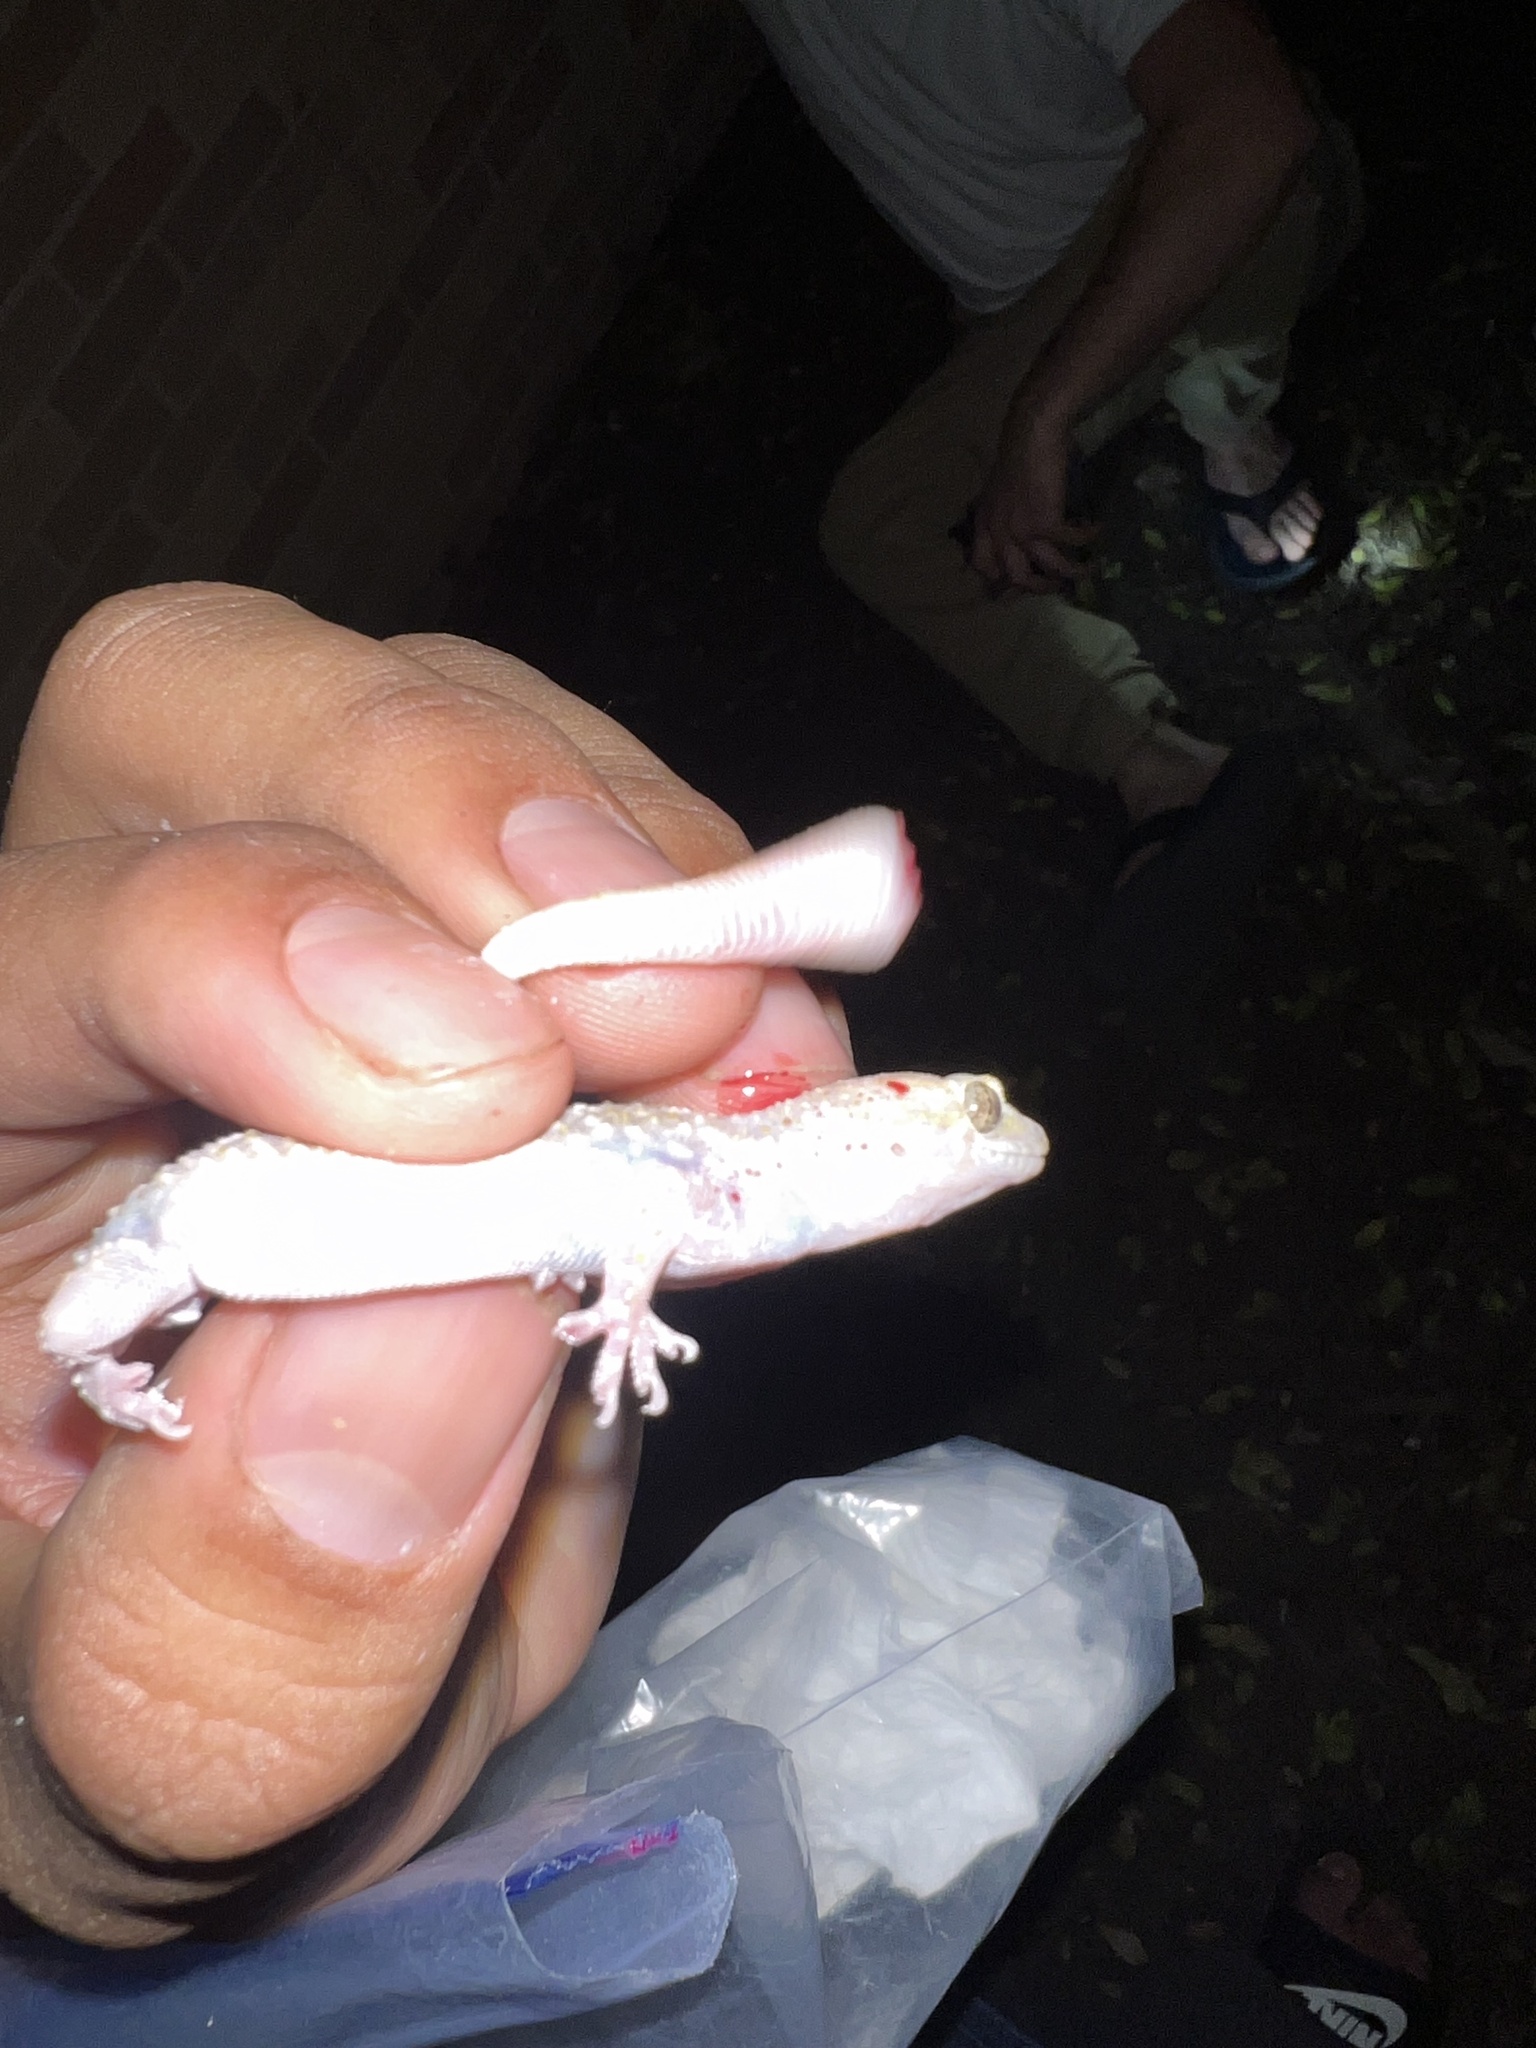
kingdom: Animalia
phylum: Chordata
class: Squamata
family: Gekkonidae
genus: Hemidactylus
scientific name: Hemidactylus turcicus
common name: Turkish gecko
